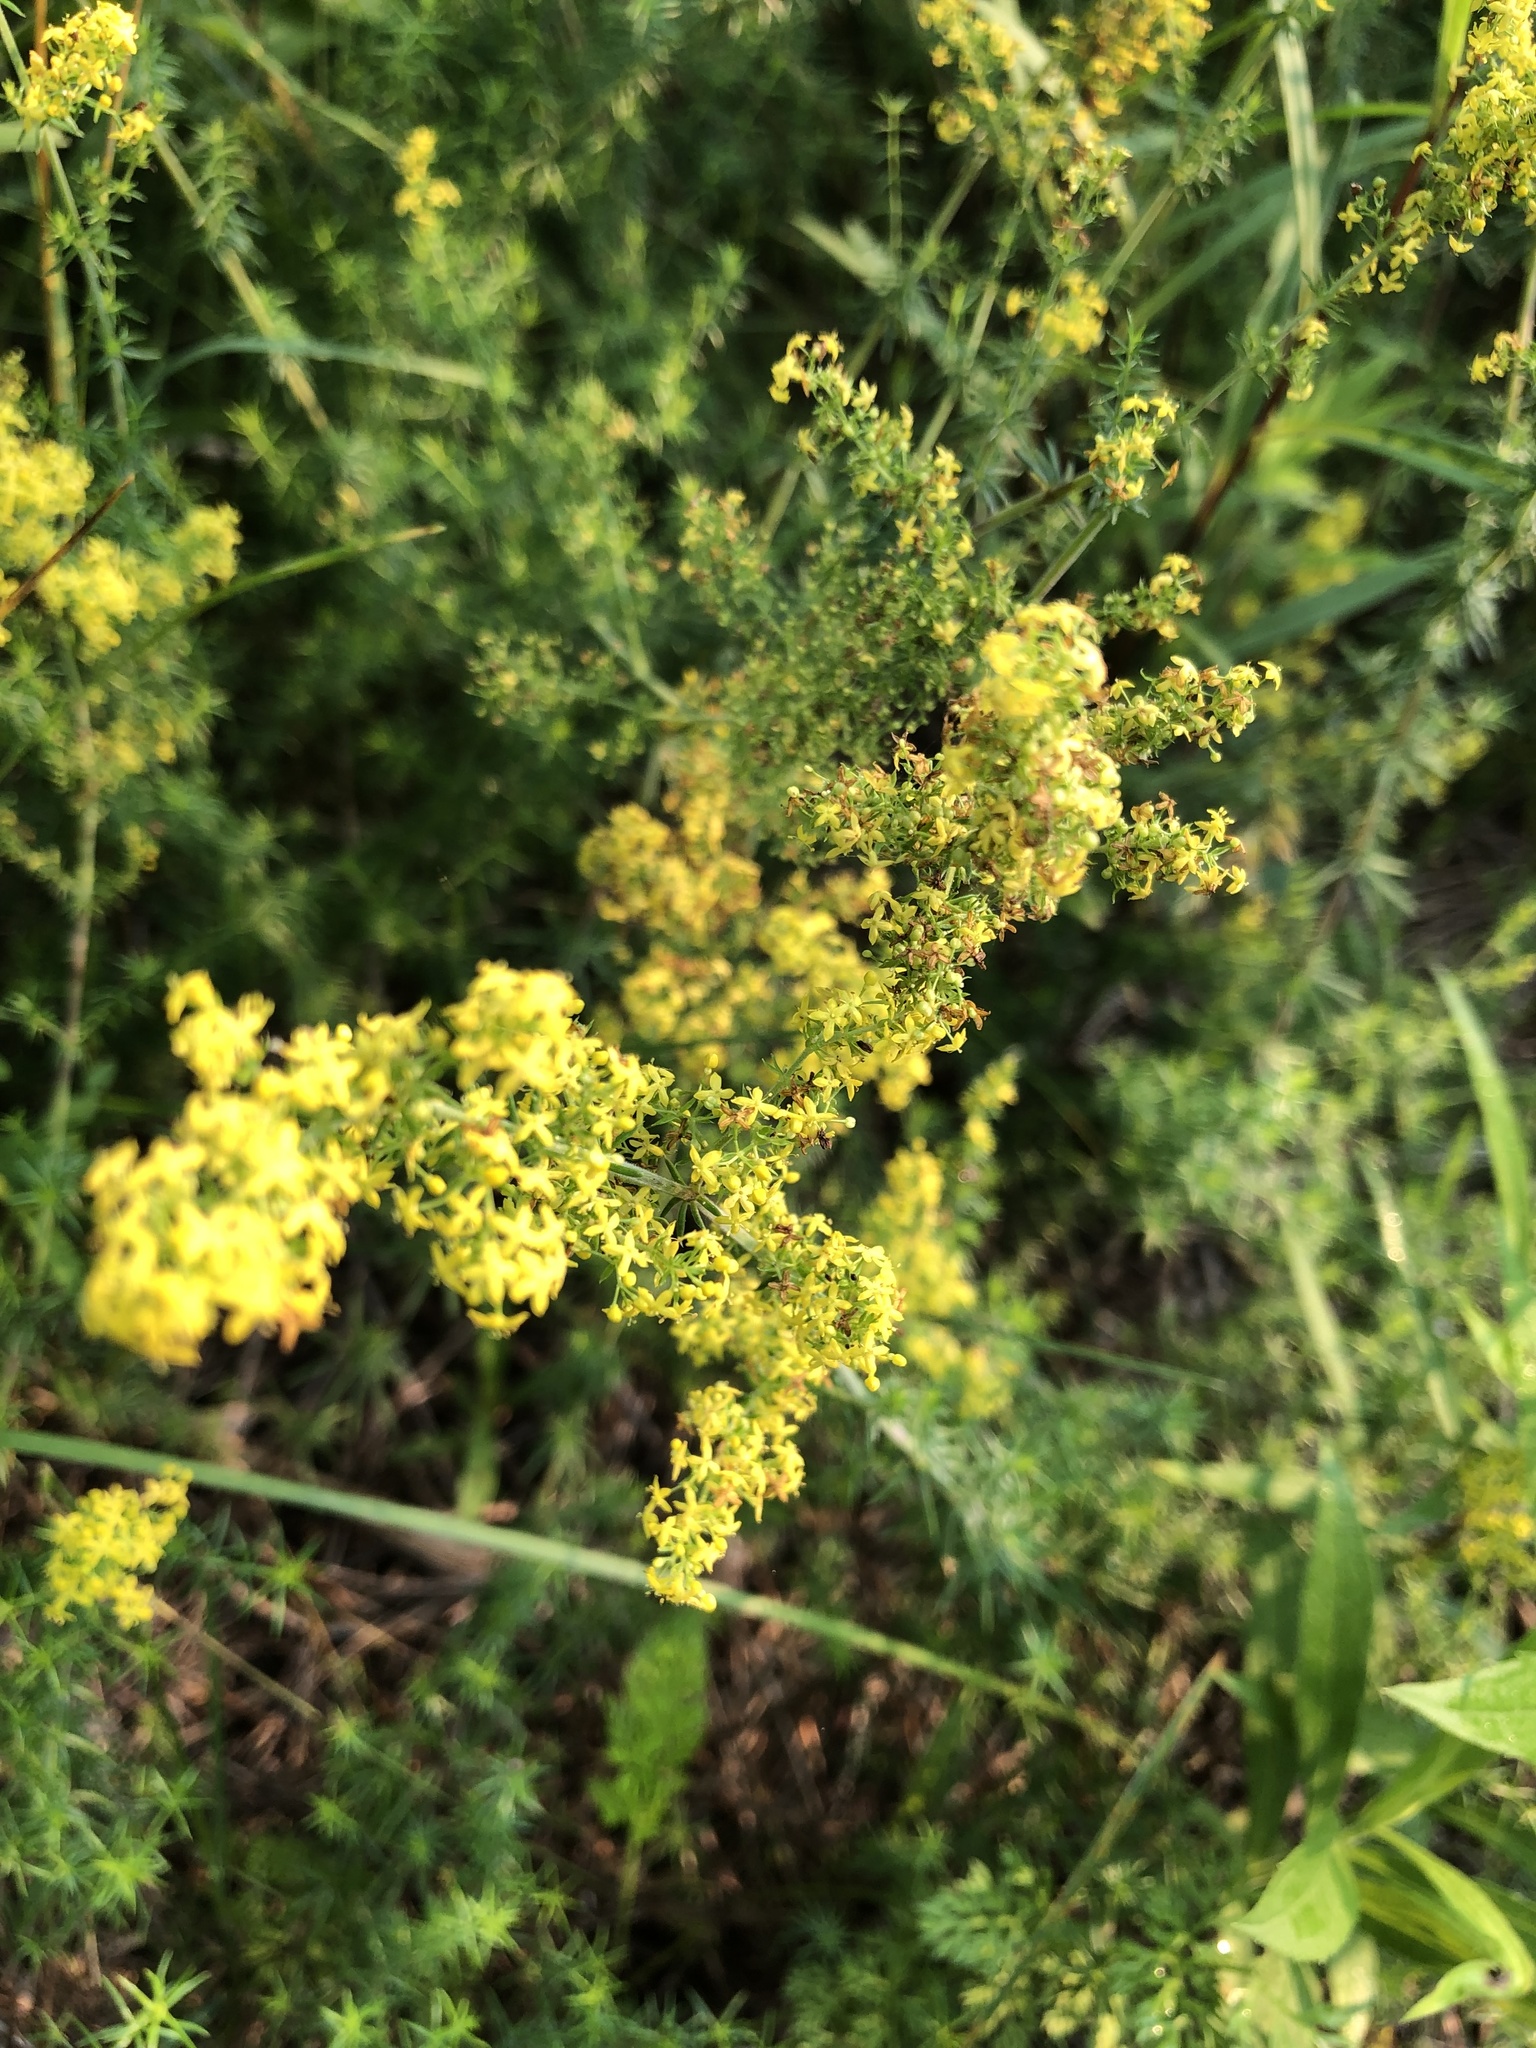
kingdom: Plantae
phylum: Tracheophyta
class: Magnoliopsida
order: Gentianales
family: Rubiaceae
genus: Galium
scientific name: Galium verum
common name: Lady's bedstraw
